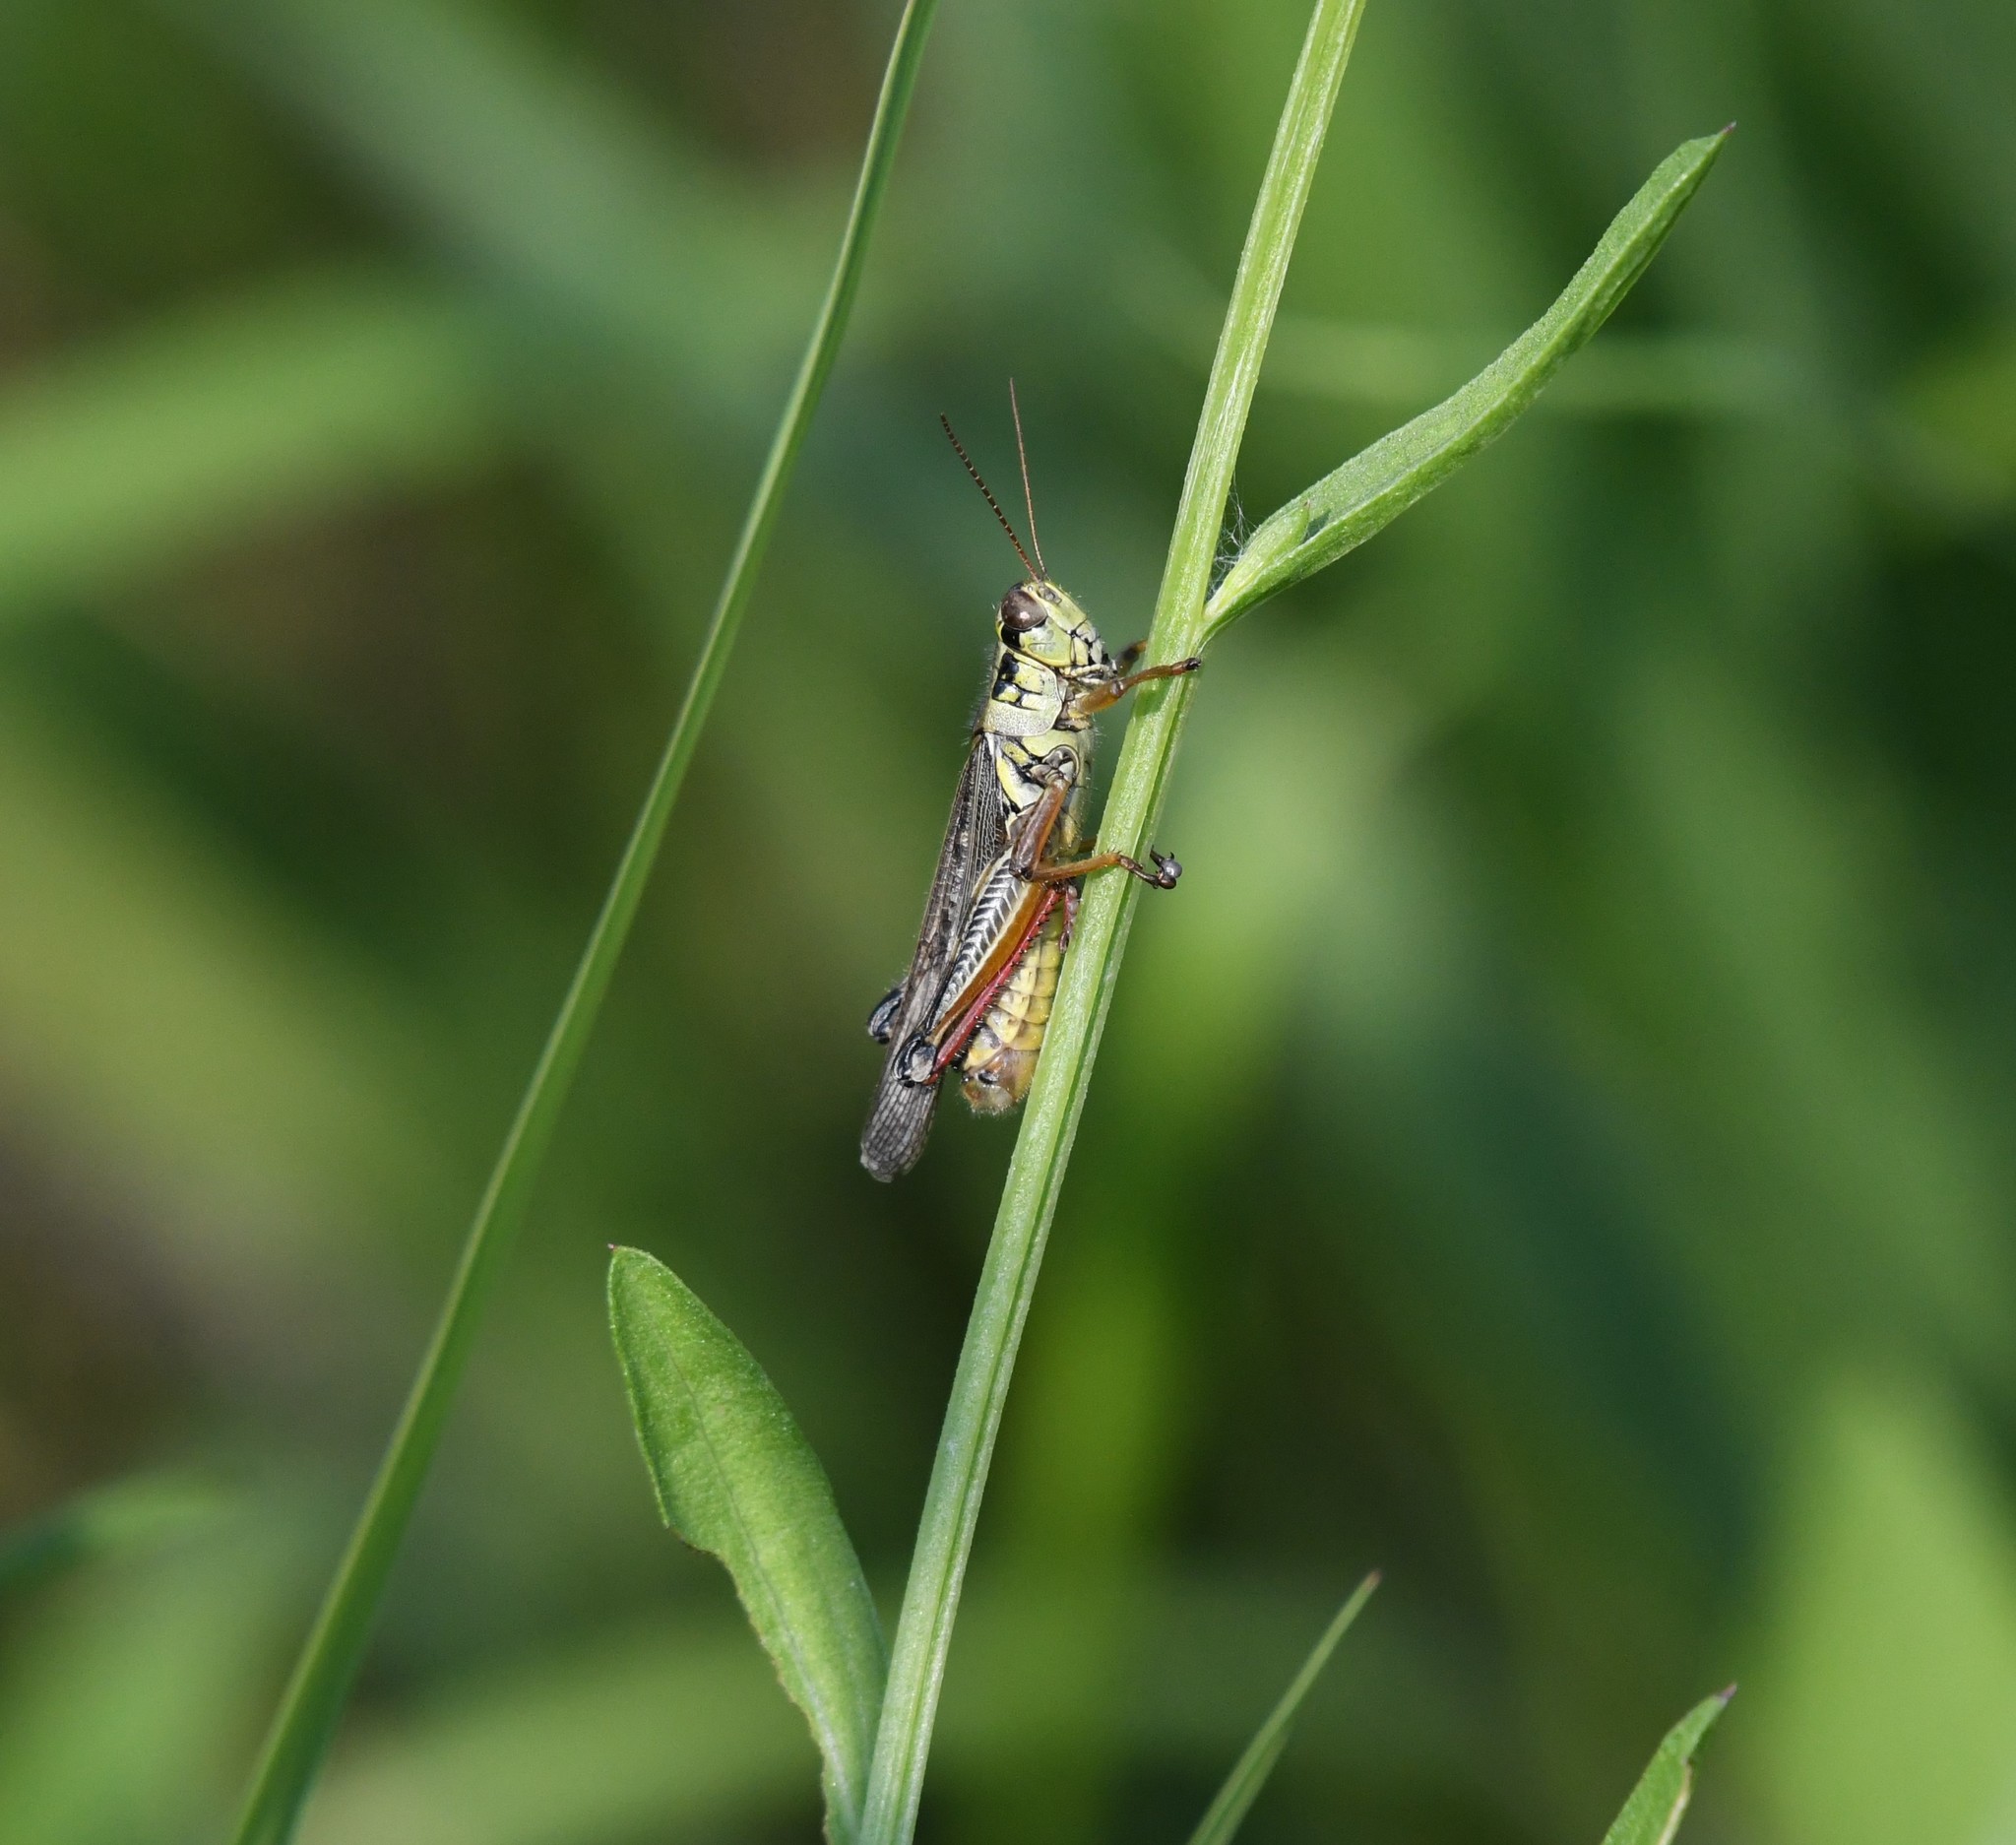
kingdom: Animalia
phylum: Arthropoda
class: Insecta
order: Orthoptera
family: Acrididae
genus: Melanoplus
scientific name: Melanoplus femurrubrum
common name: Red-legged grasshopper
